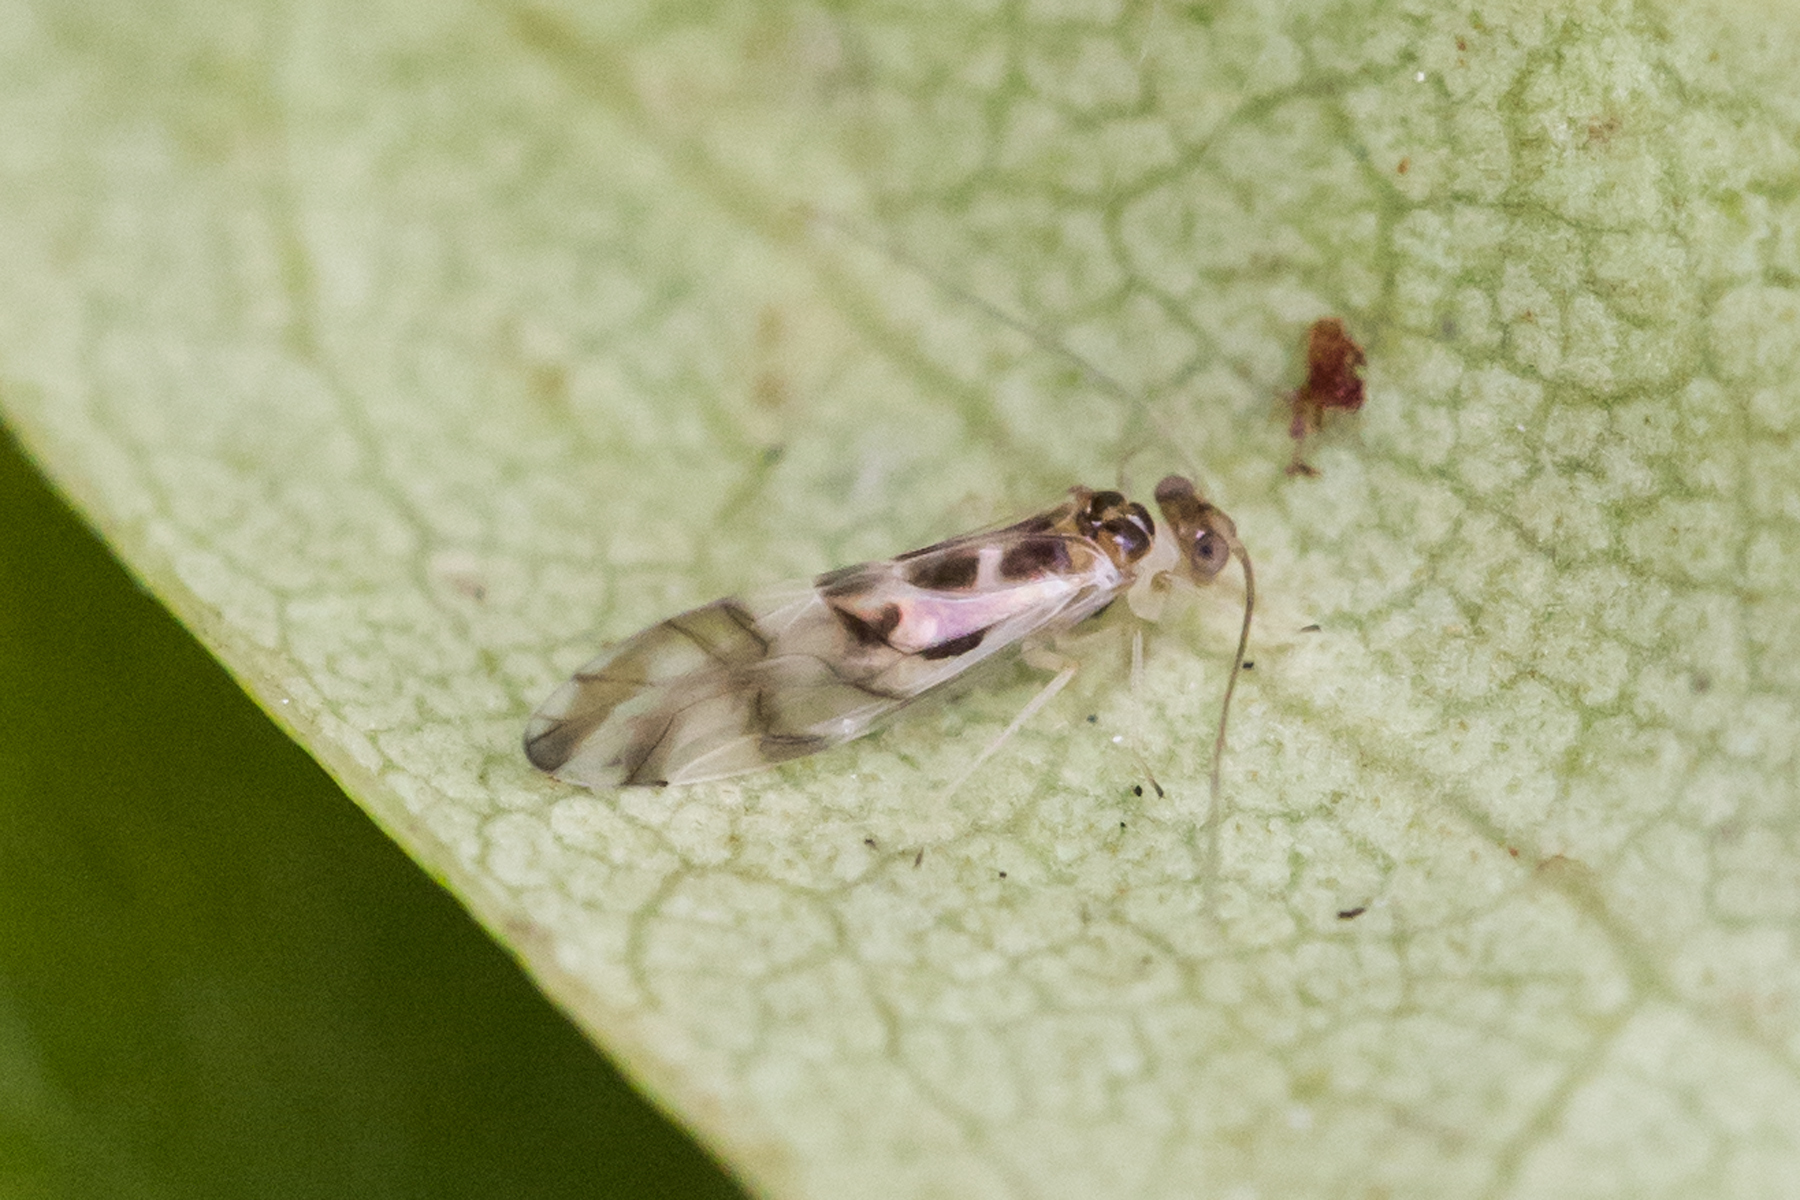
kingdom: Animalia
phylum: Arthropoda
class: Insecta
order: Psocodea
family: Stenopsocidae
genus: Graphopsocus
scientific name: Graphopsocus cruciatus
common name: Lizard bark louse
